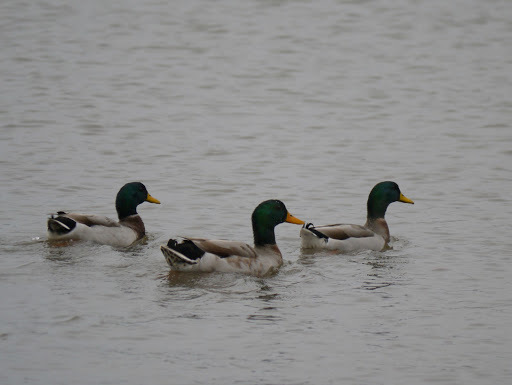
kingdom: Animalia
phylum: Chordata
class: Aves
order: Anseriformes
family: Anatidae
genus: Anas
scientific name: Anas platyrhynchos
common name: Mallard
